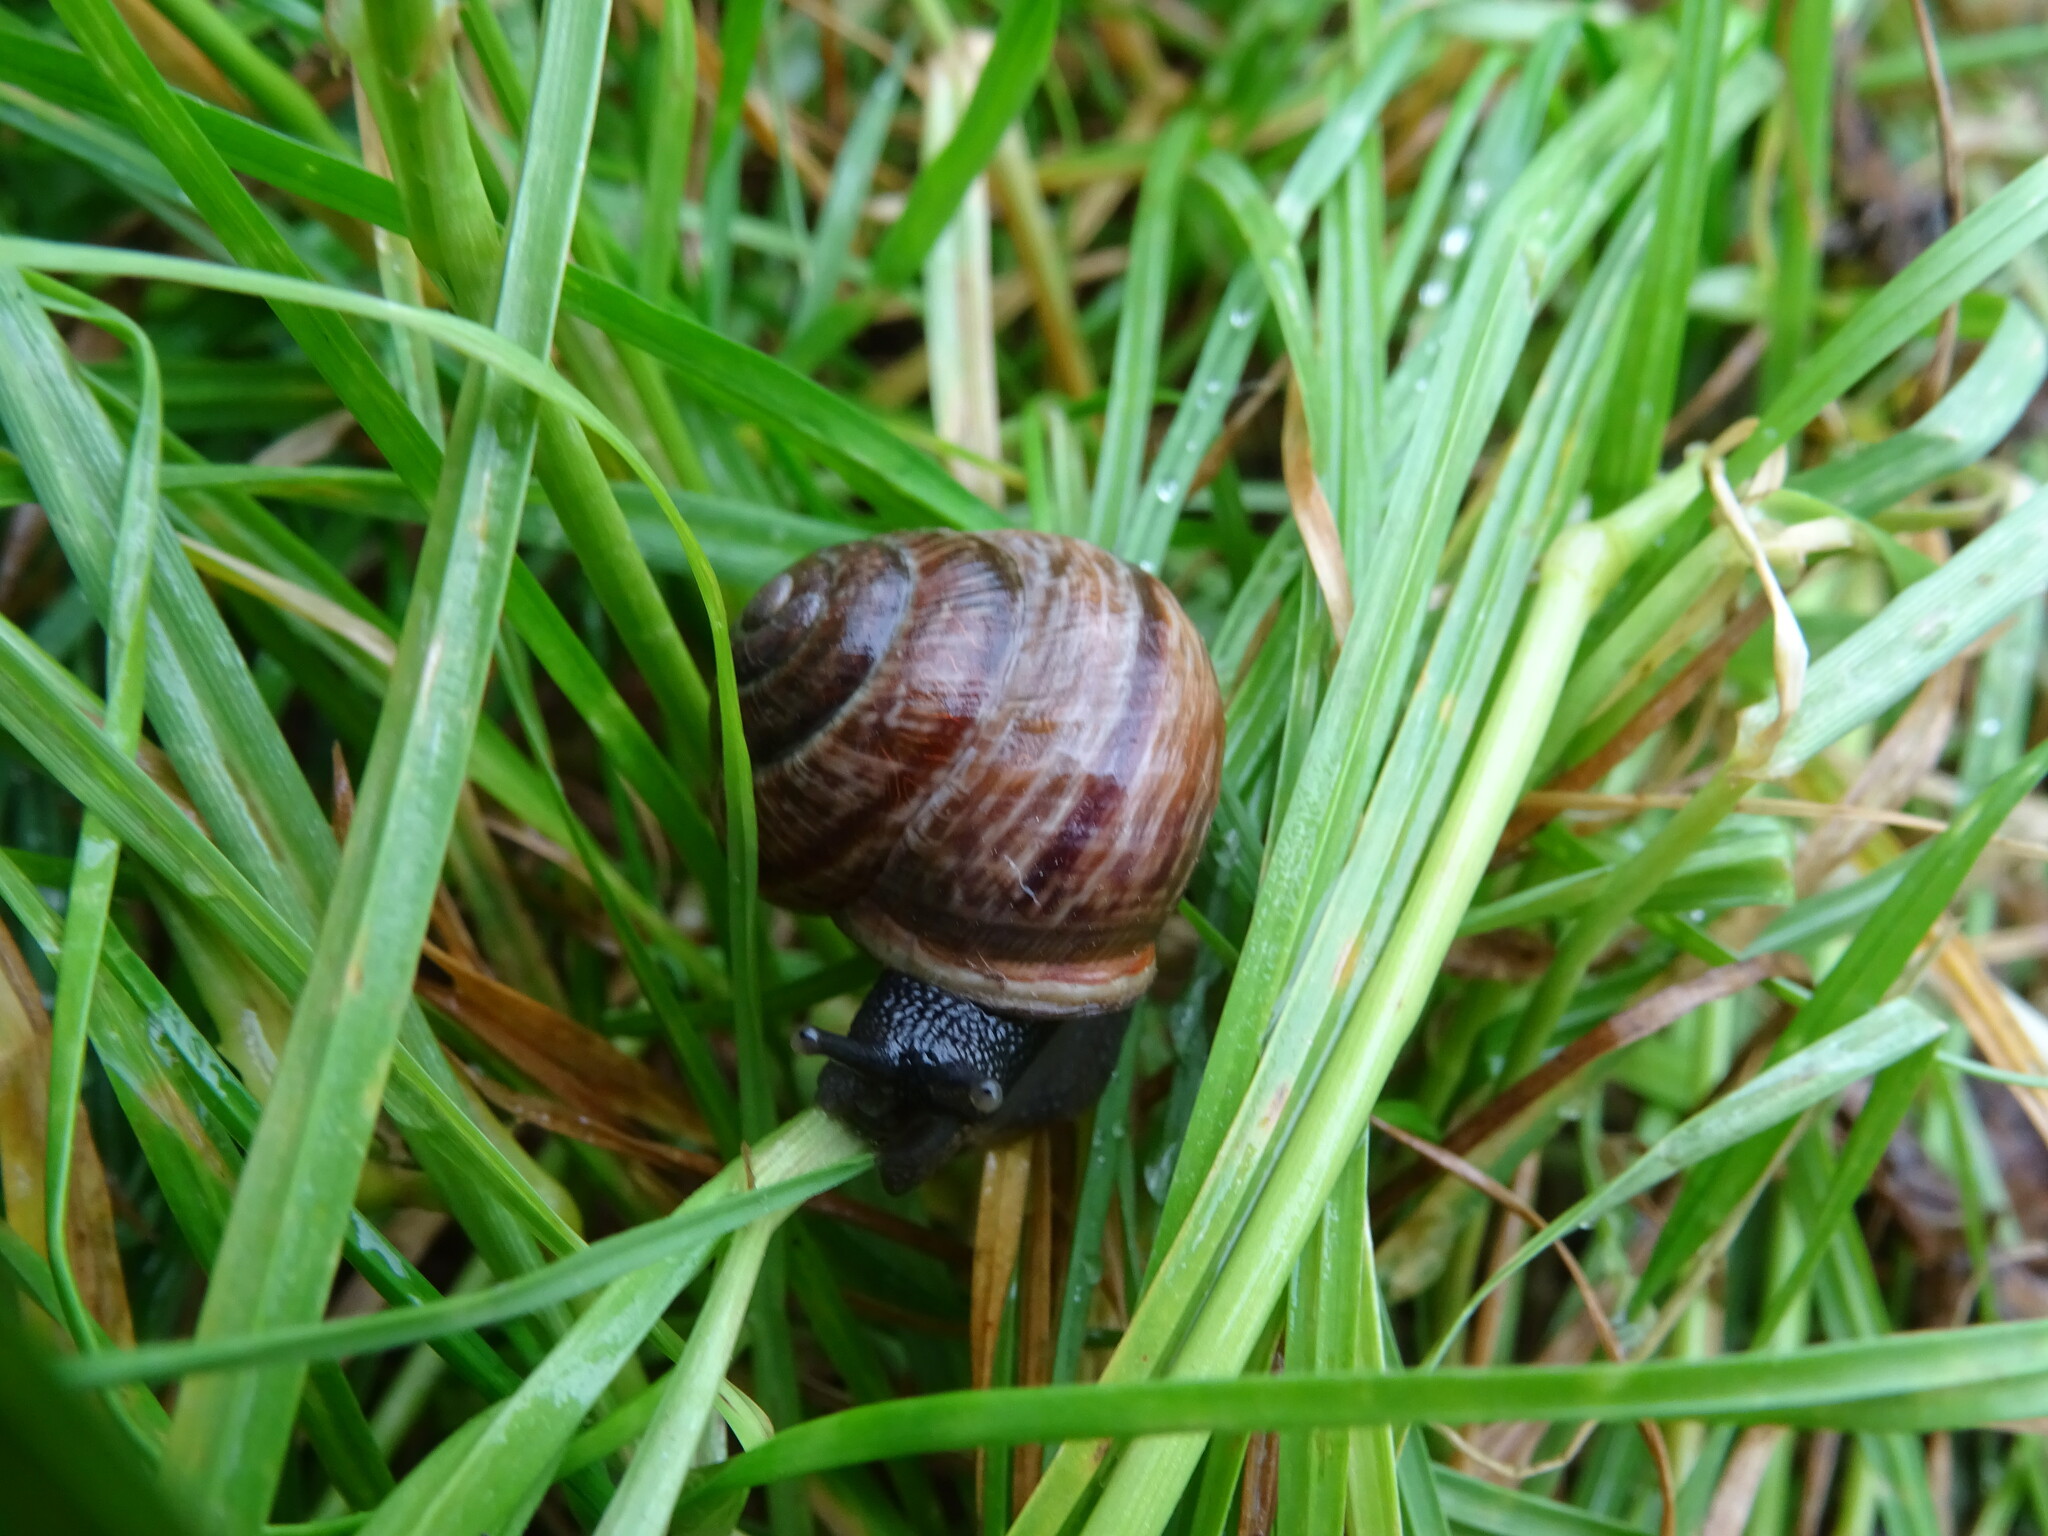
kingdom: Animalia
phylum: Mollusca
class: Gastropoda
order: Stylommatophora
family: Helicidae
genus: Arianta
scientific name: Arianta arbustorum
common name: Copse snail
